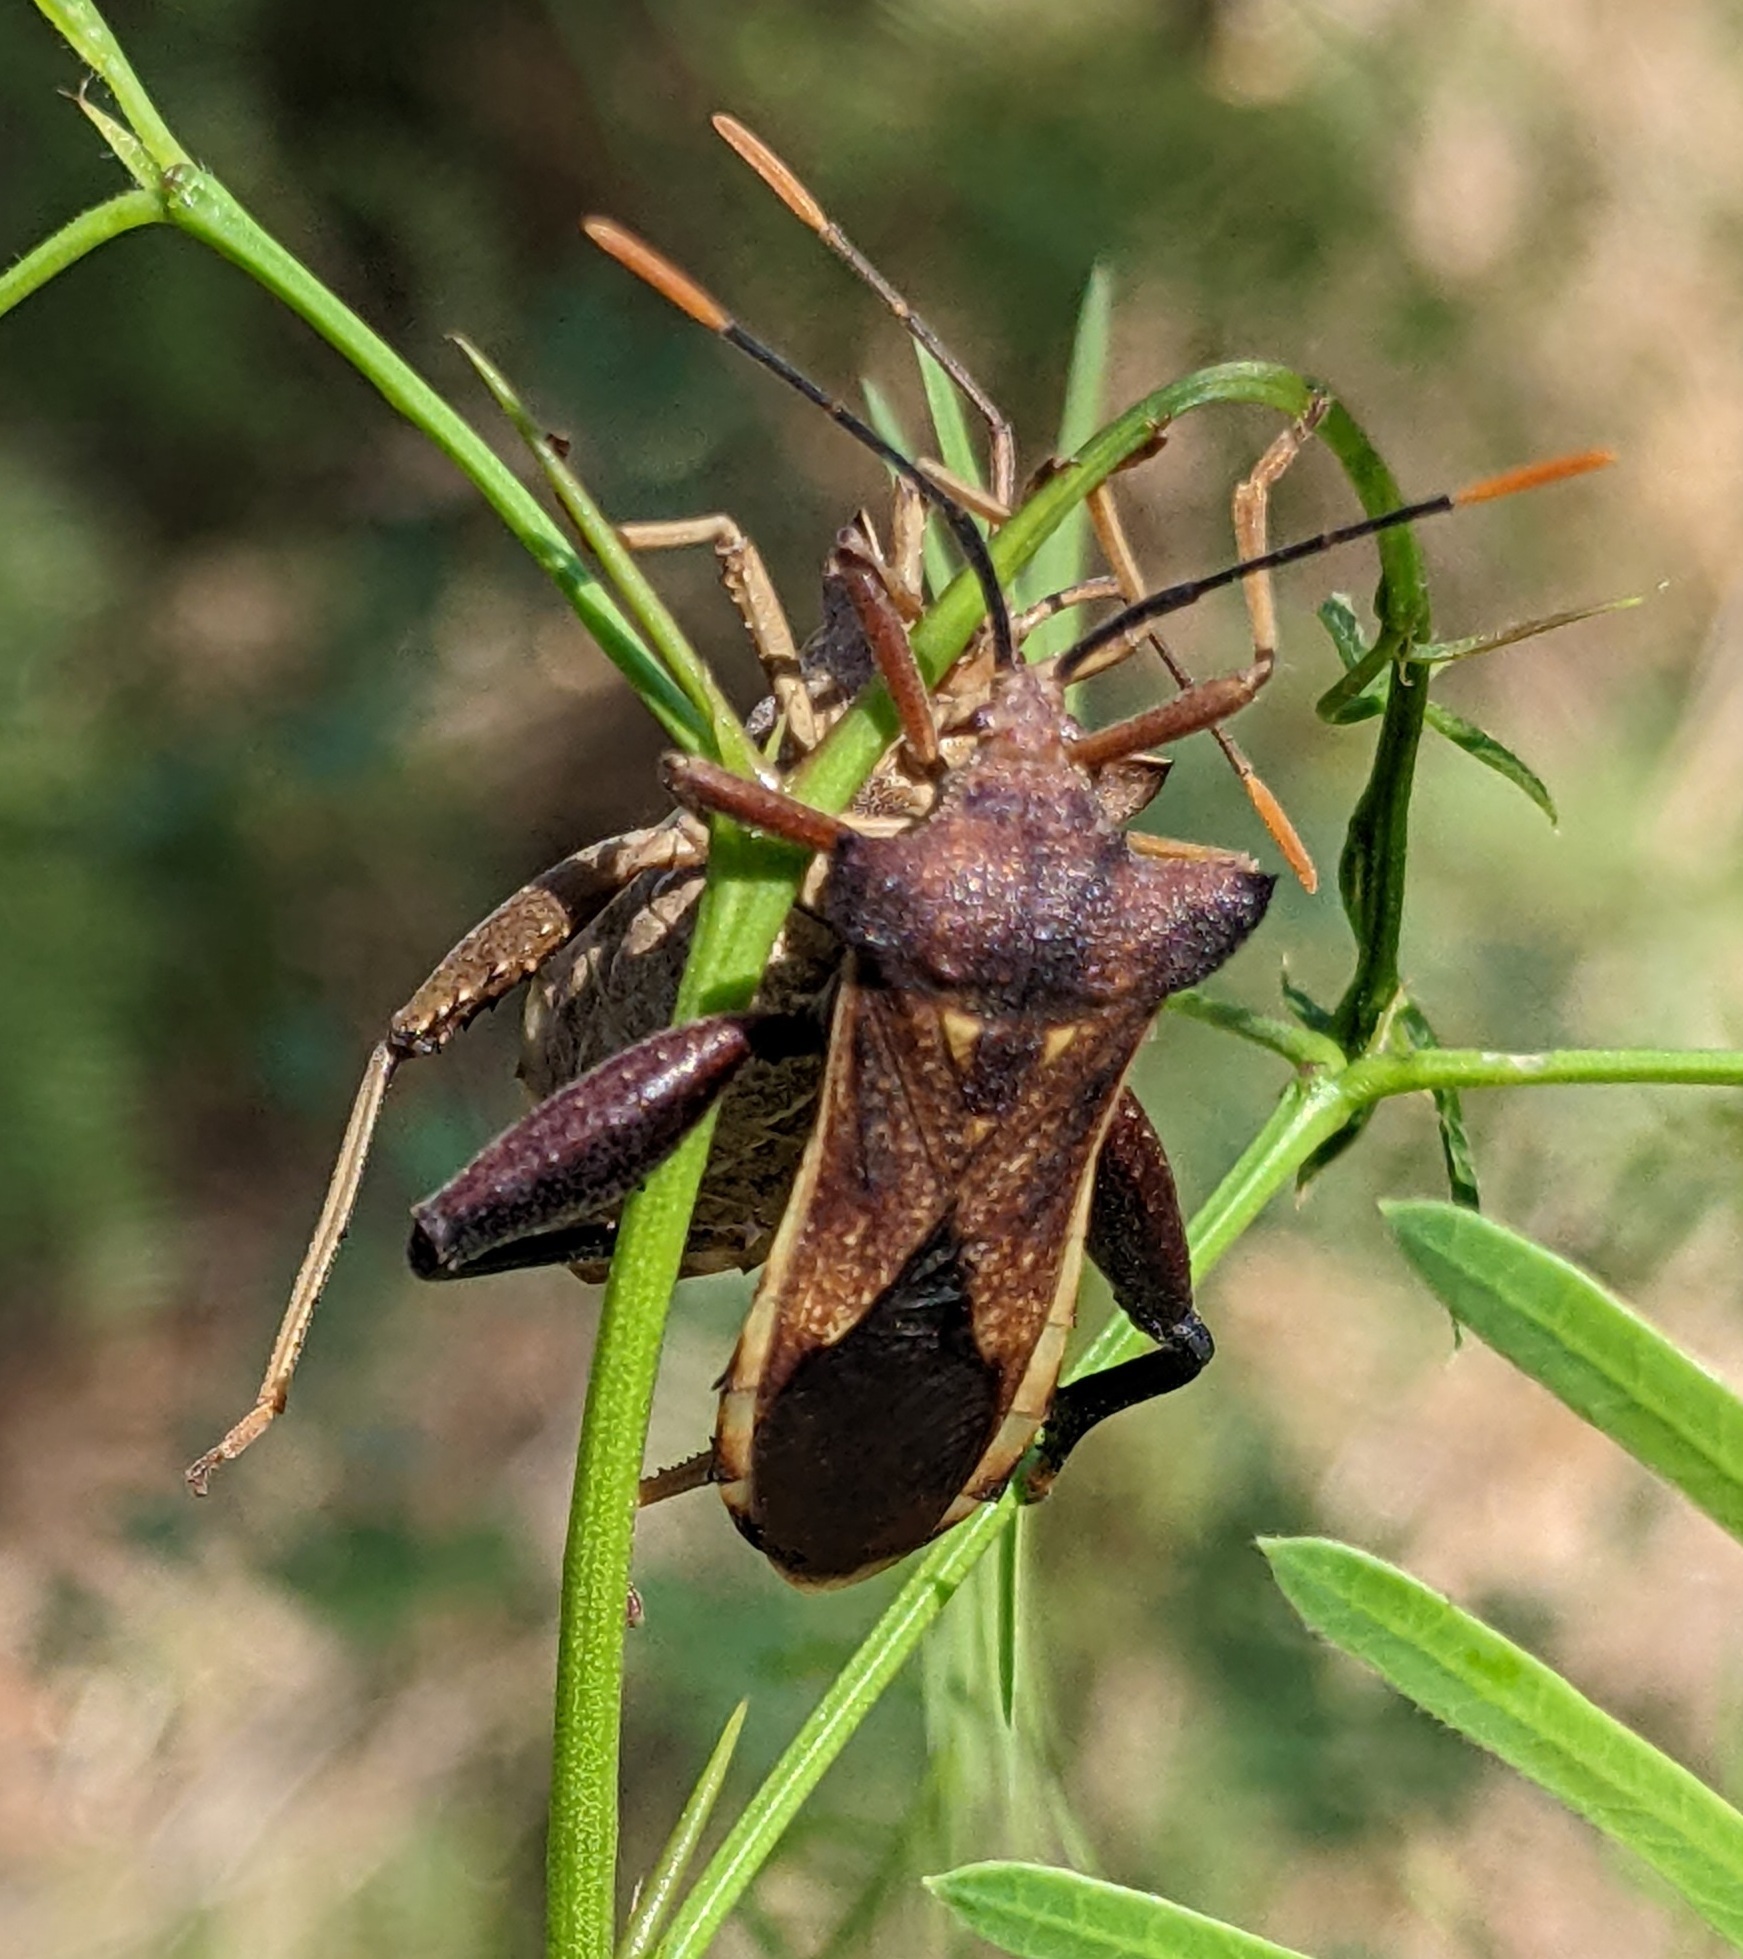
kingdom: Animalia
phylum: Arthropoda
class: Insecta
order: Hemiptera
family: Coreidae
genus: Mozena
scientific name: Mozena lunata
